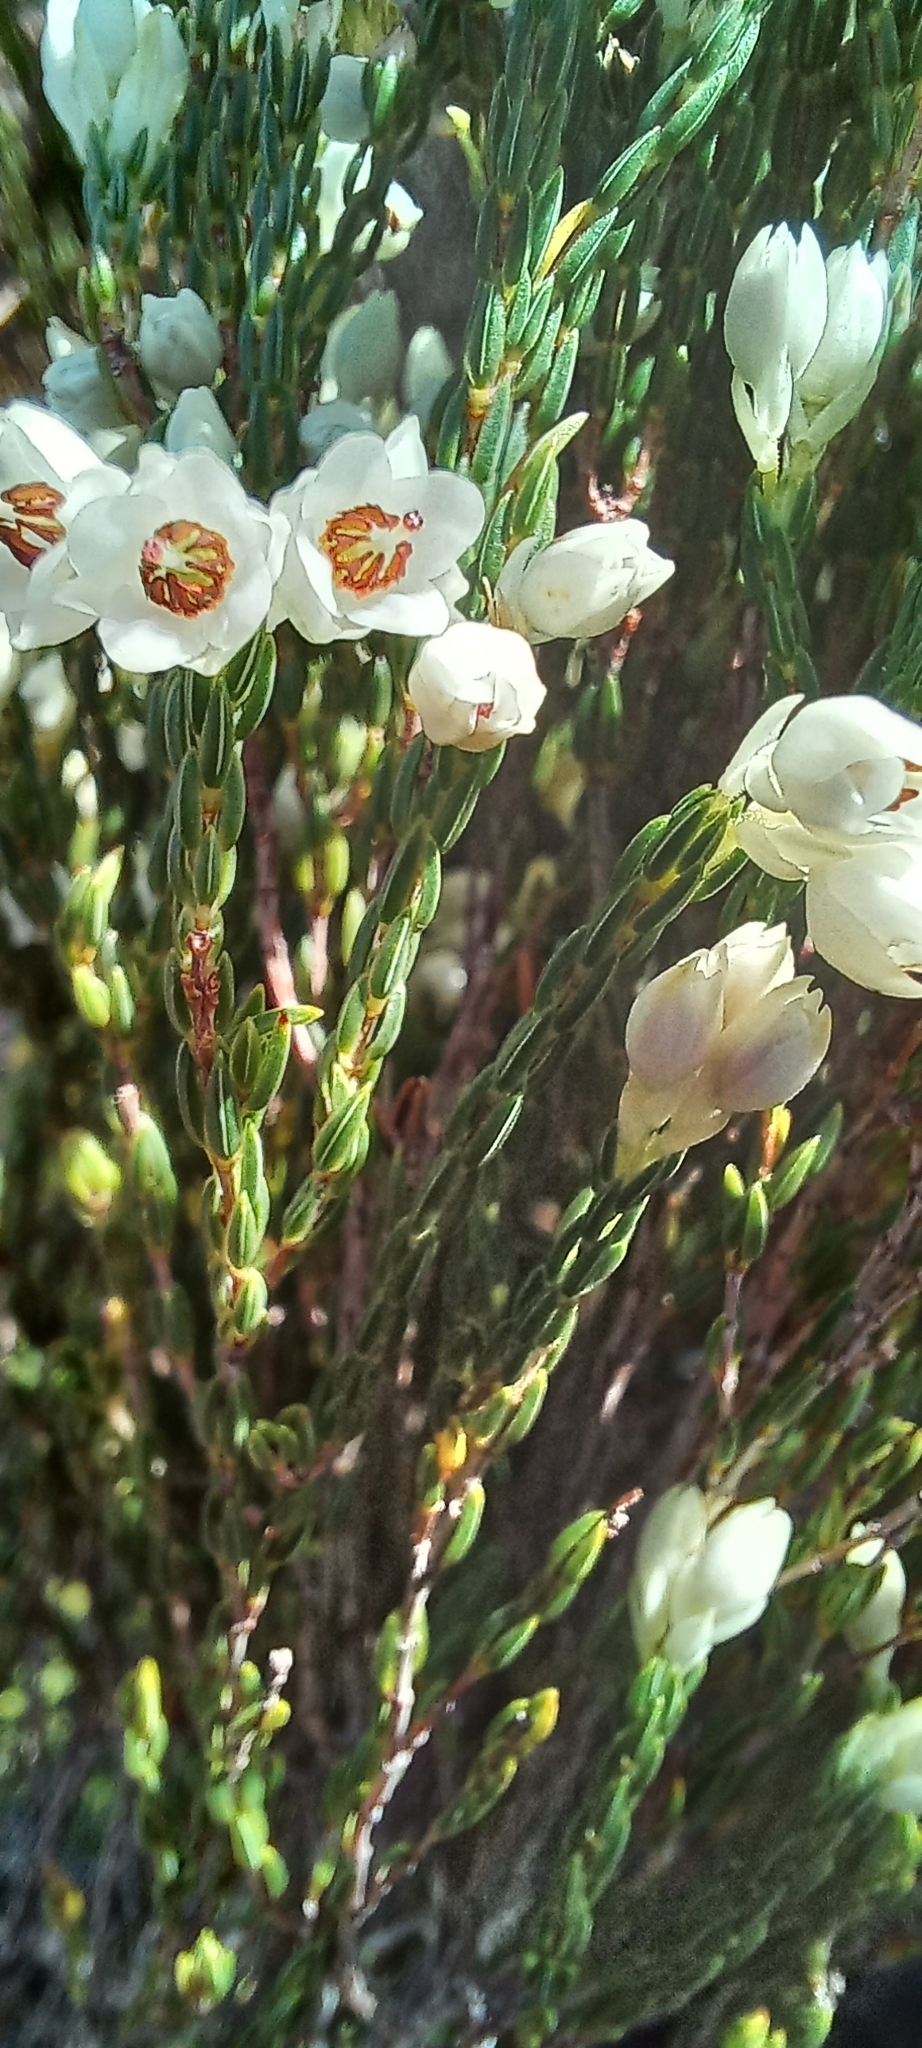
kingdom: Plantae
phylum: Tracheophyta
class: Magnoliopsida
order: Ericales
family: Ericaceae
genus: Erica
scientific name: Erica nivea
